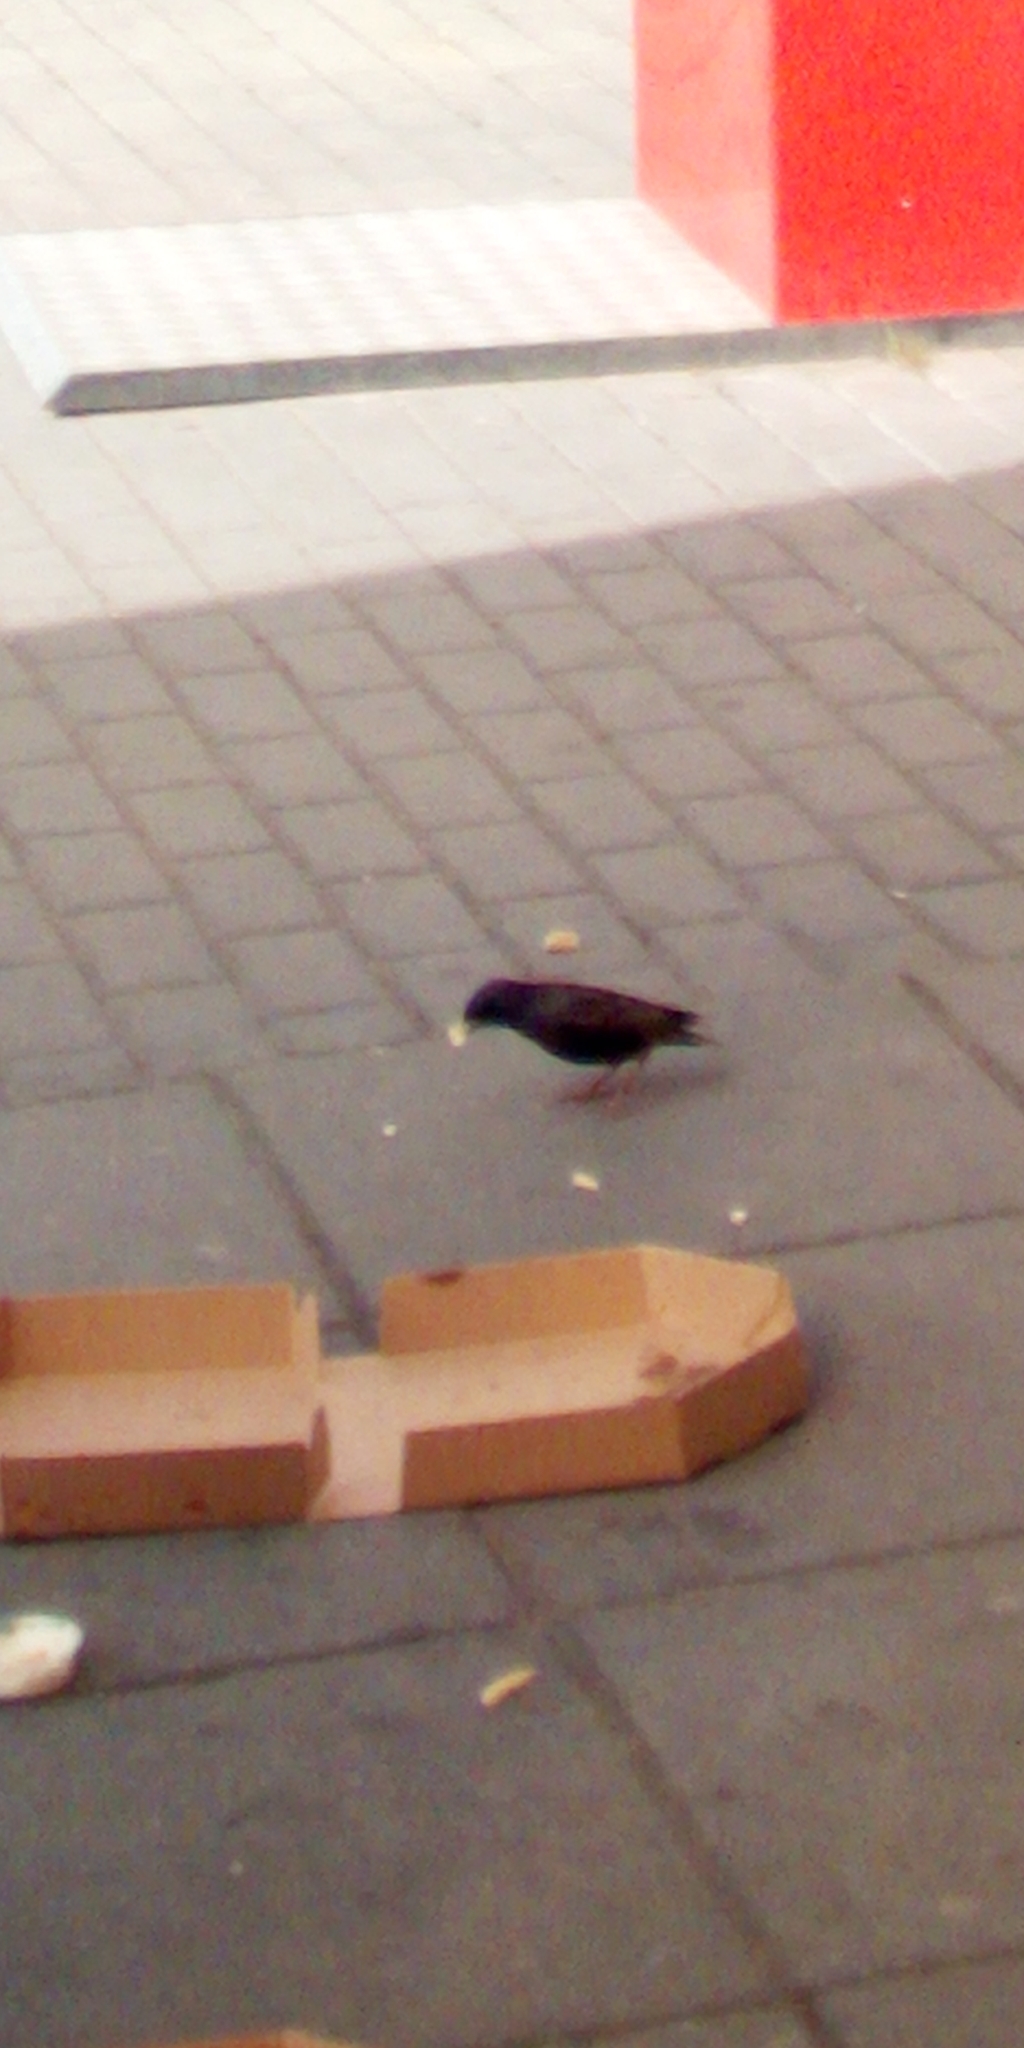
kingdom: Animalia
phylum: Chordata
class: Aves
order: Passeriformes
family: Sturnidae
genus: Sturnus
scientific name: Sturnus vulgaris
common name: Common starling
